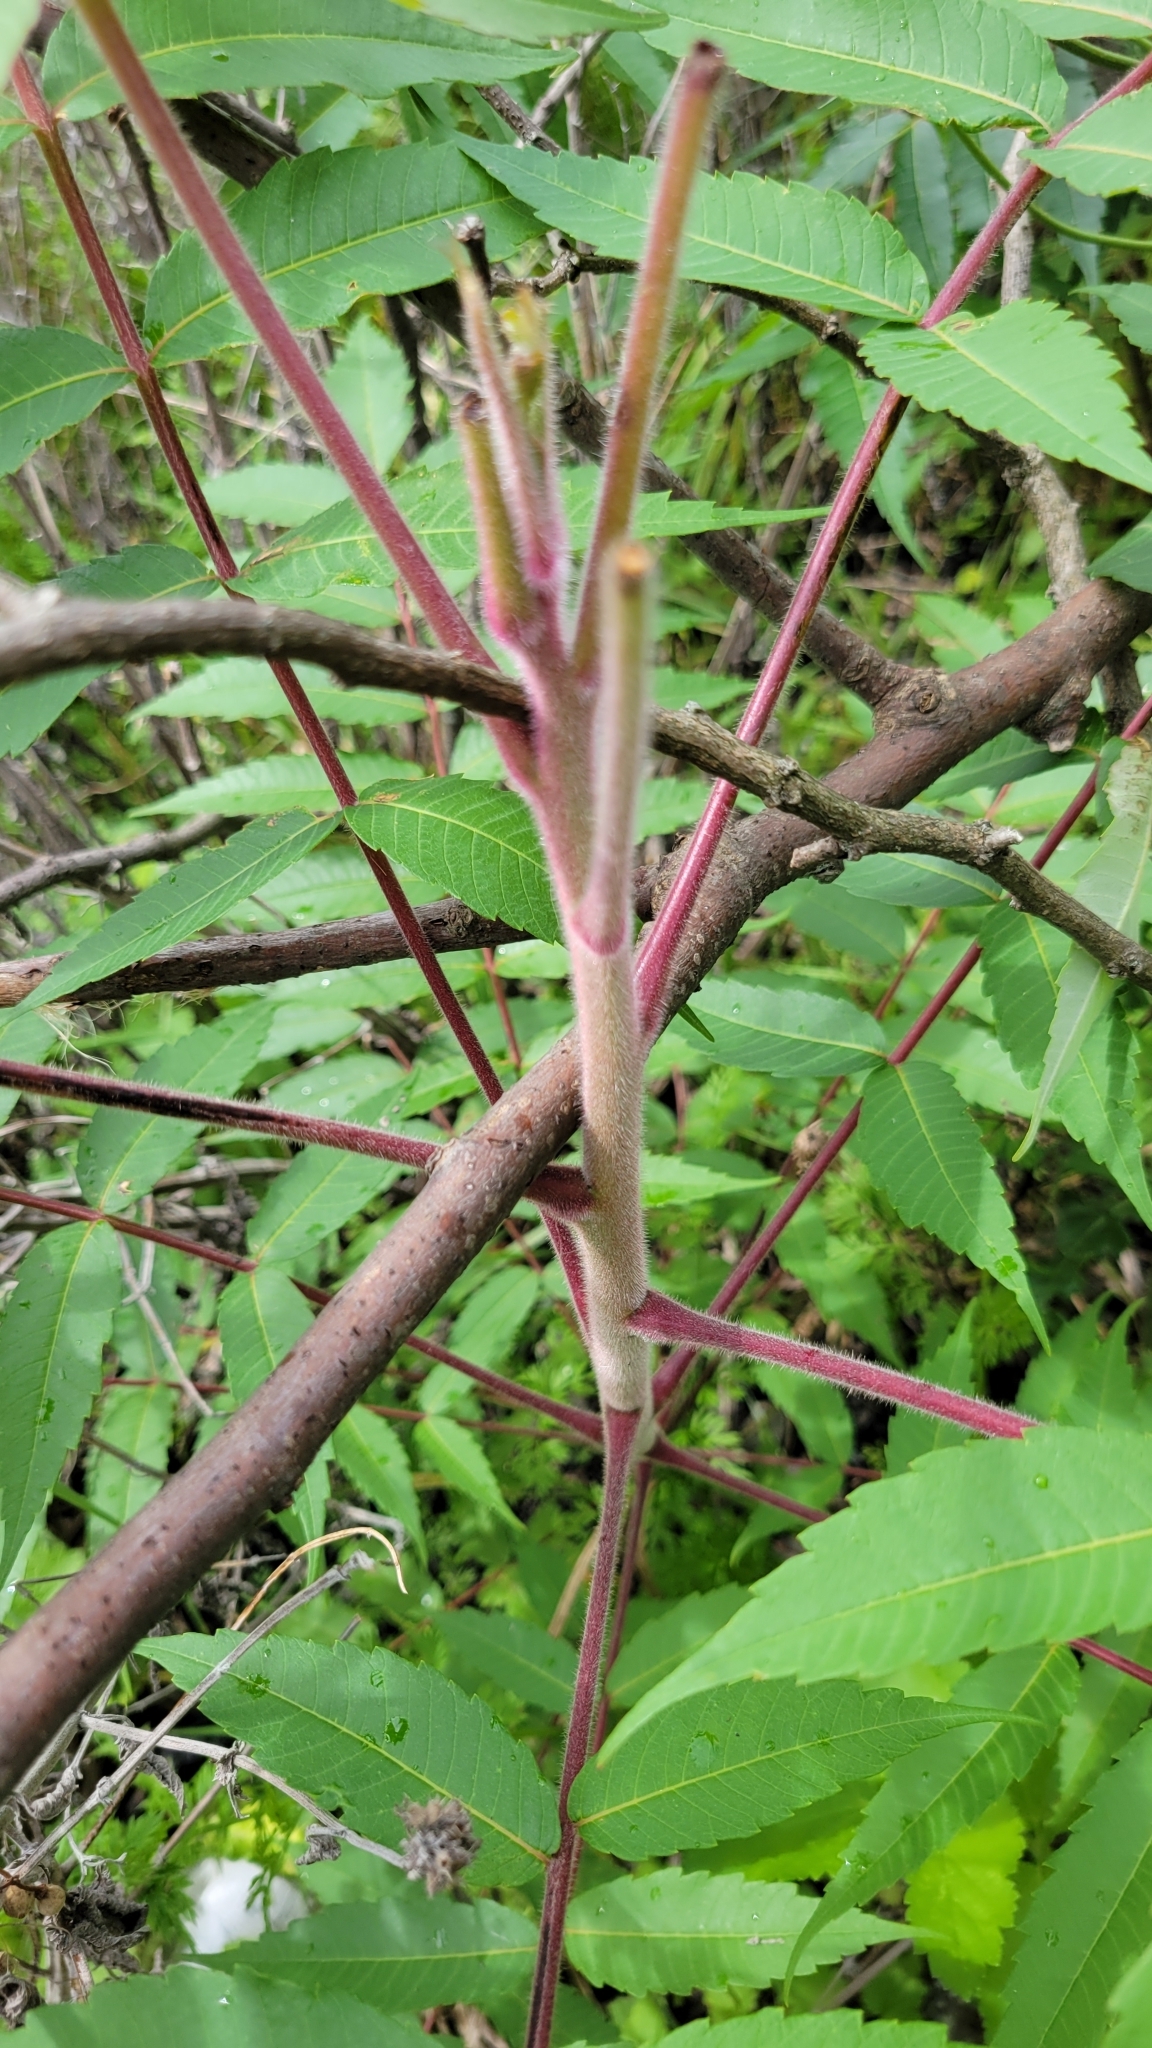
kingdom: Plantae
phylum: Tracheophyta
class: Magnoliopsida
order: Sapindales
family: Anacardiaceae
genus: Rhus
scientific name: Rhus typhina
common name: Staghorn sumac
